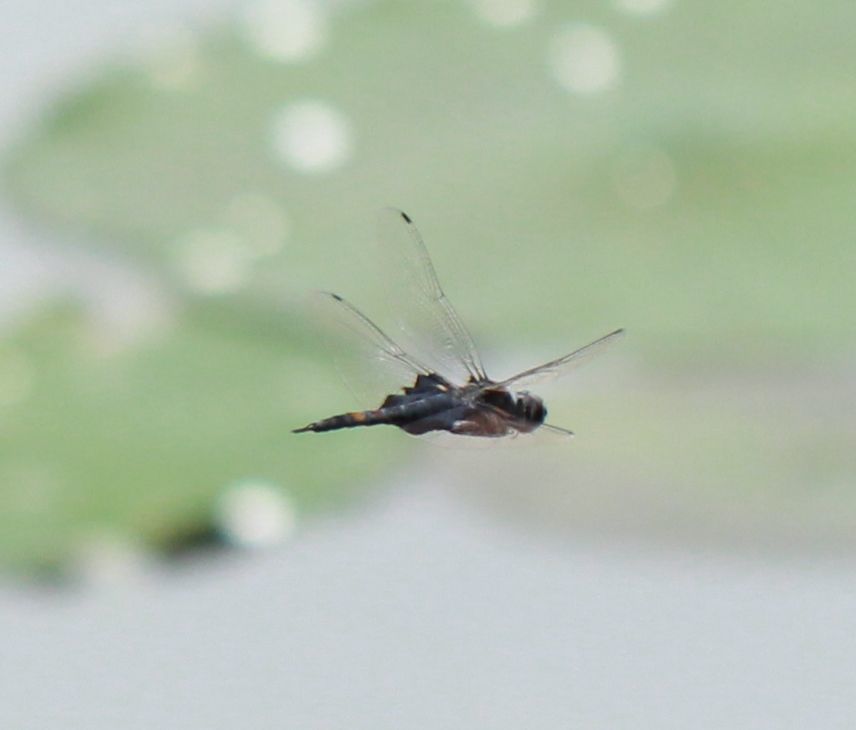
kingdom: Animalia
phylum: Arthropoda
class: Insecta
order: Odonata
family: Libellulidae
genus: Tramea
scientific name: Tramea lacerata
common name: Black saddlebags
